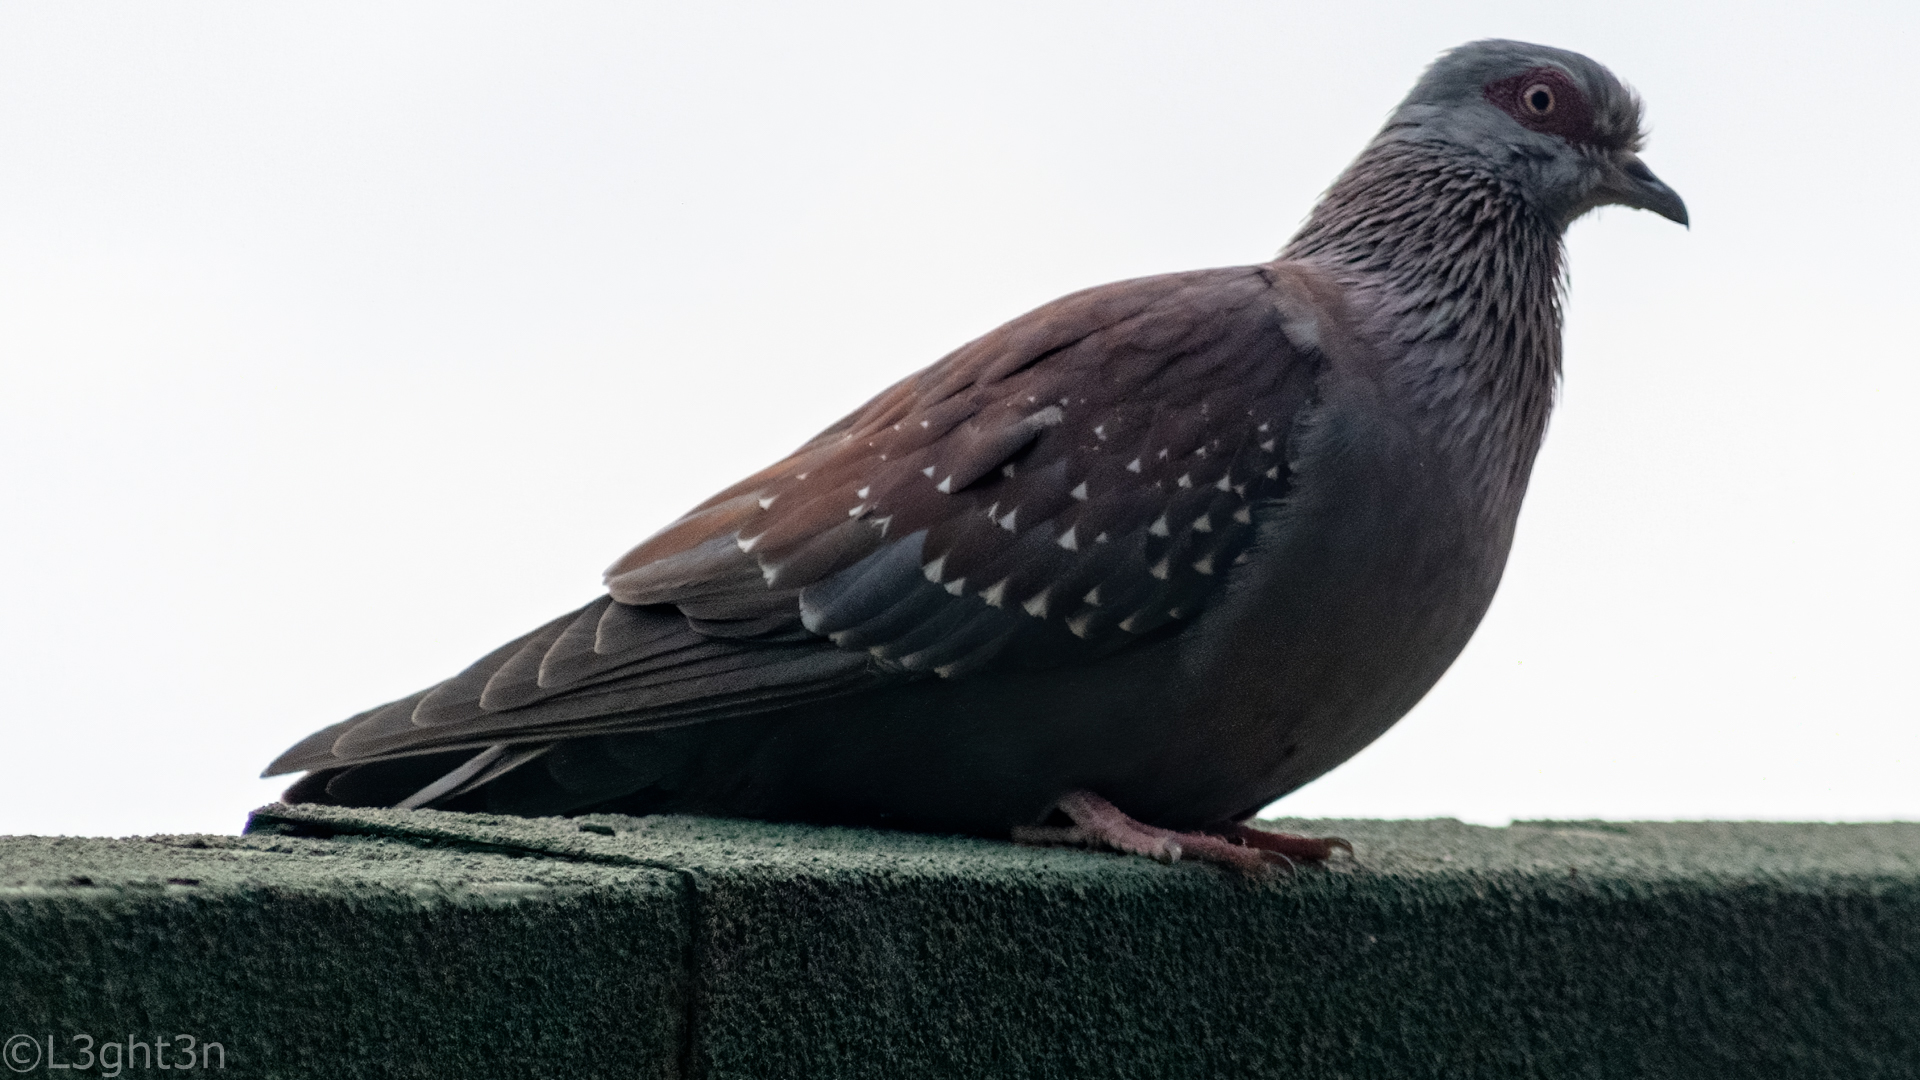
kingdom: Animalia
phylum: Chordata
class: Aves
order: Columbiformes
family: Columbidae
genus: Columba
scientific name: Columba guinea
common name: Speckled pigeon
